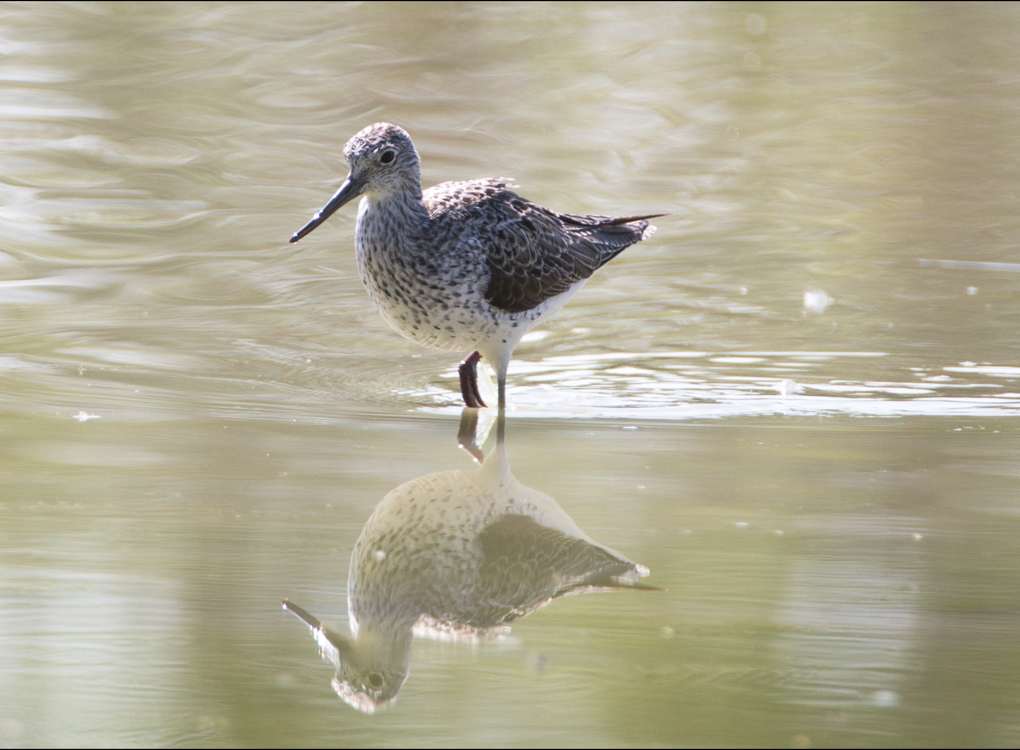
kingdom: Animalia
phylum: Chordata
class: Aves
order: Charadriiformes
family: Scolopacidae
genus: Tringa
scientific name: Tringa nebularia
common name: Common greenshank
